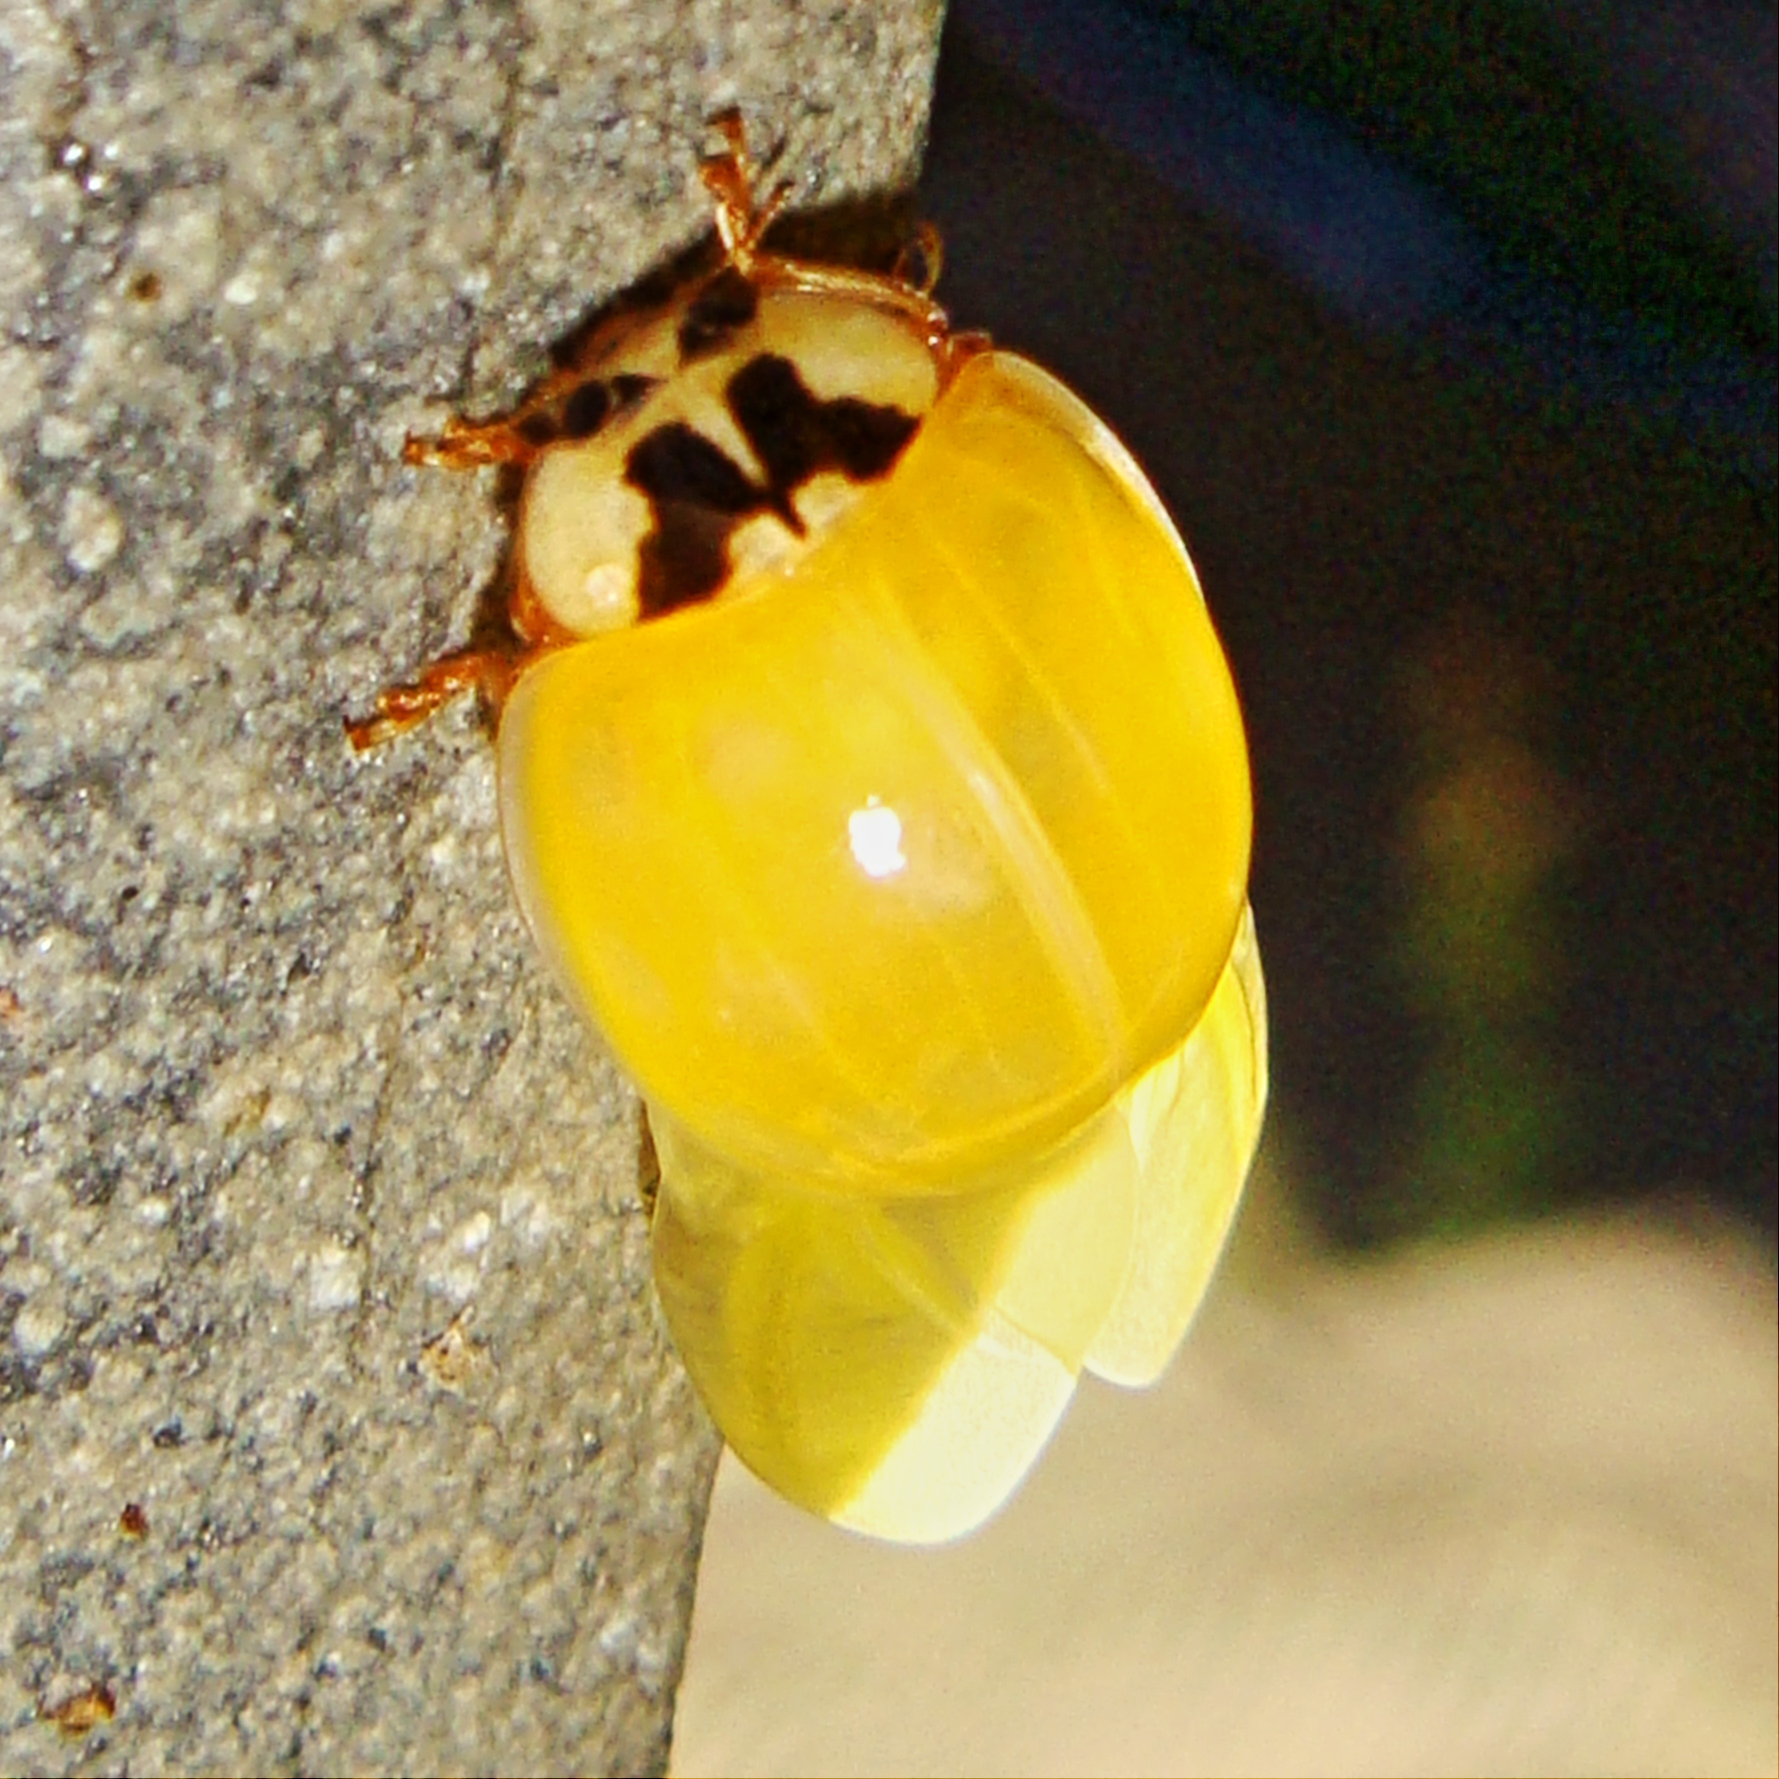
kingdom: Animalia
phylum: Arthropoda
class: Insecta
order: Coleoptera
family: Coccinellidae
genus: Harmonia
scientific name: Harmonia axyridis
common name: Harlequin ladybird
